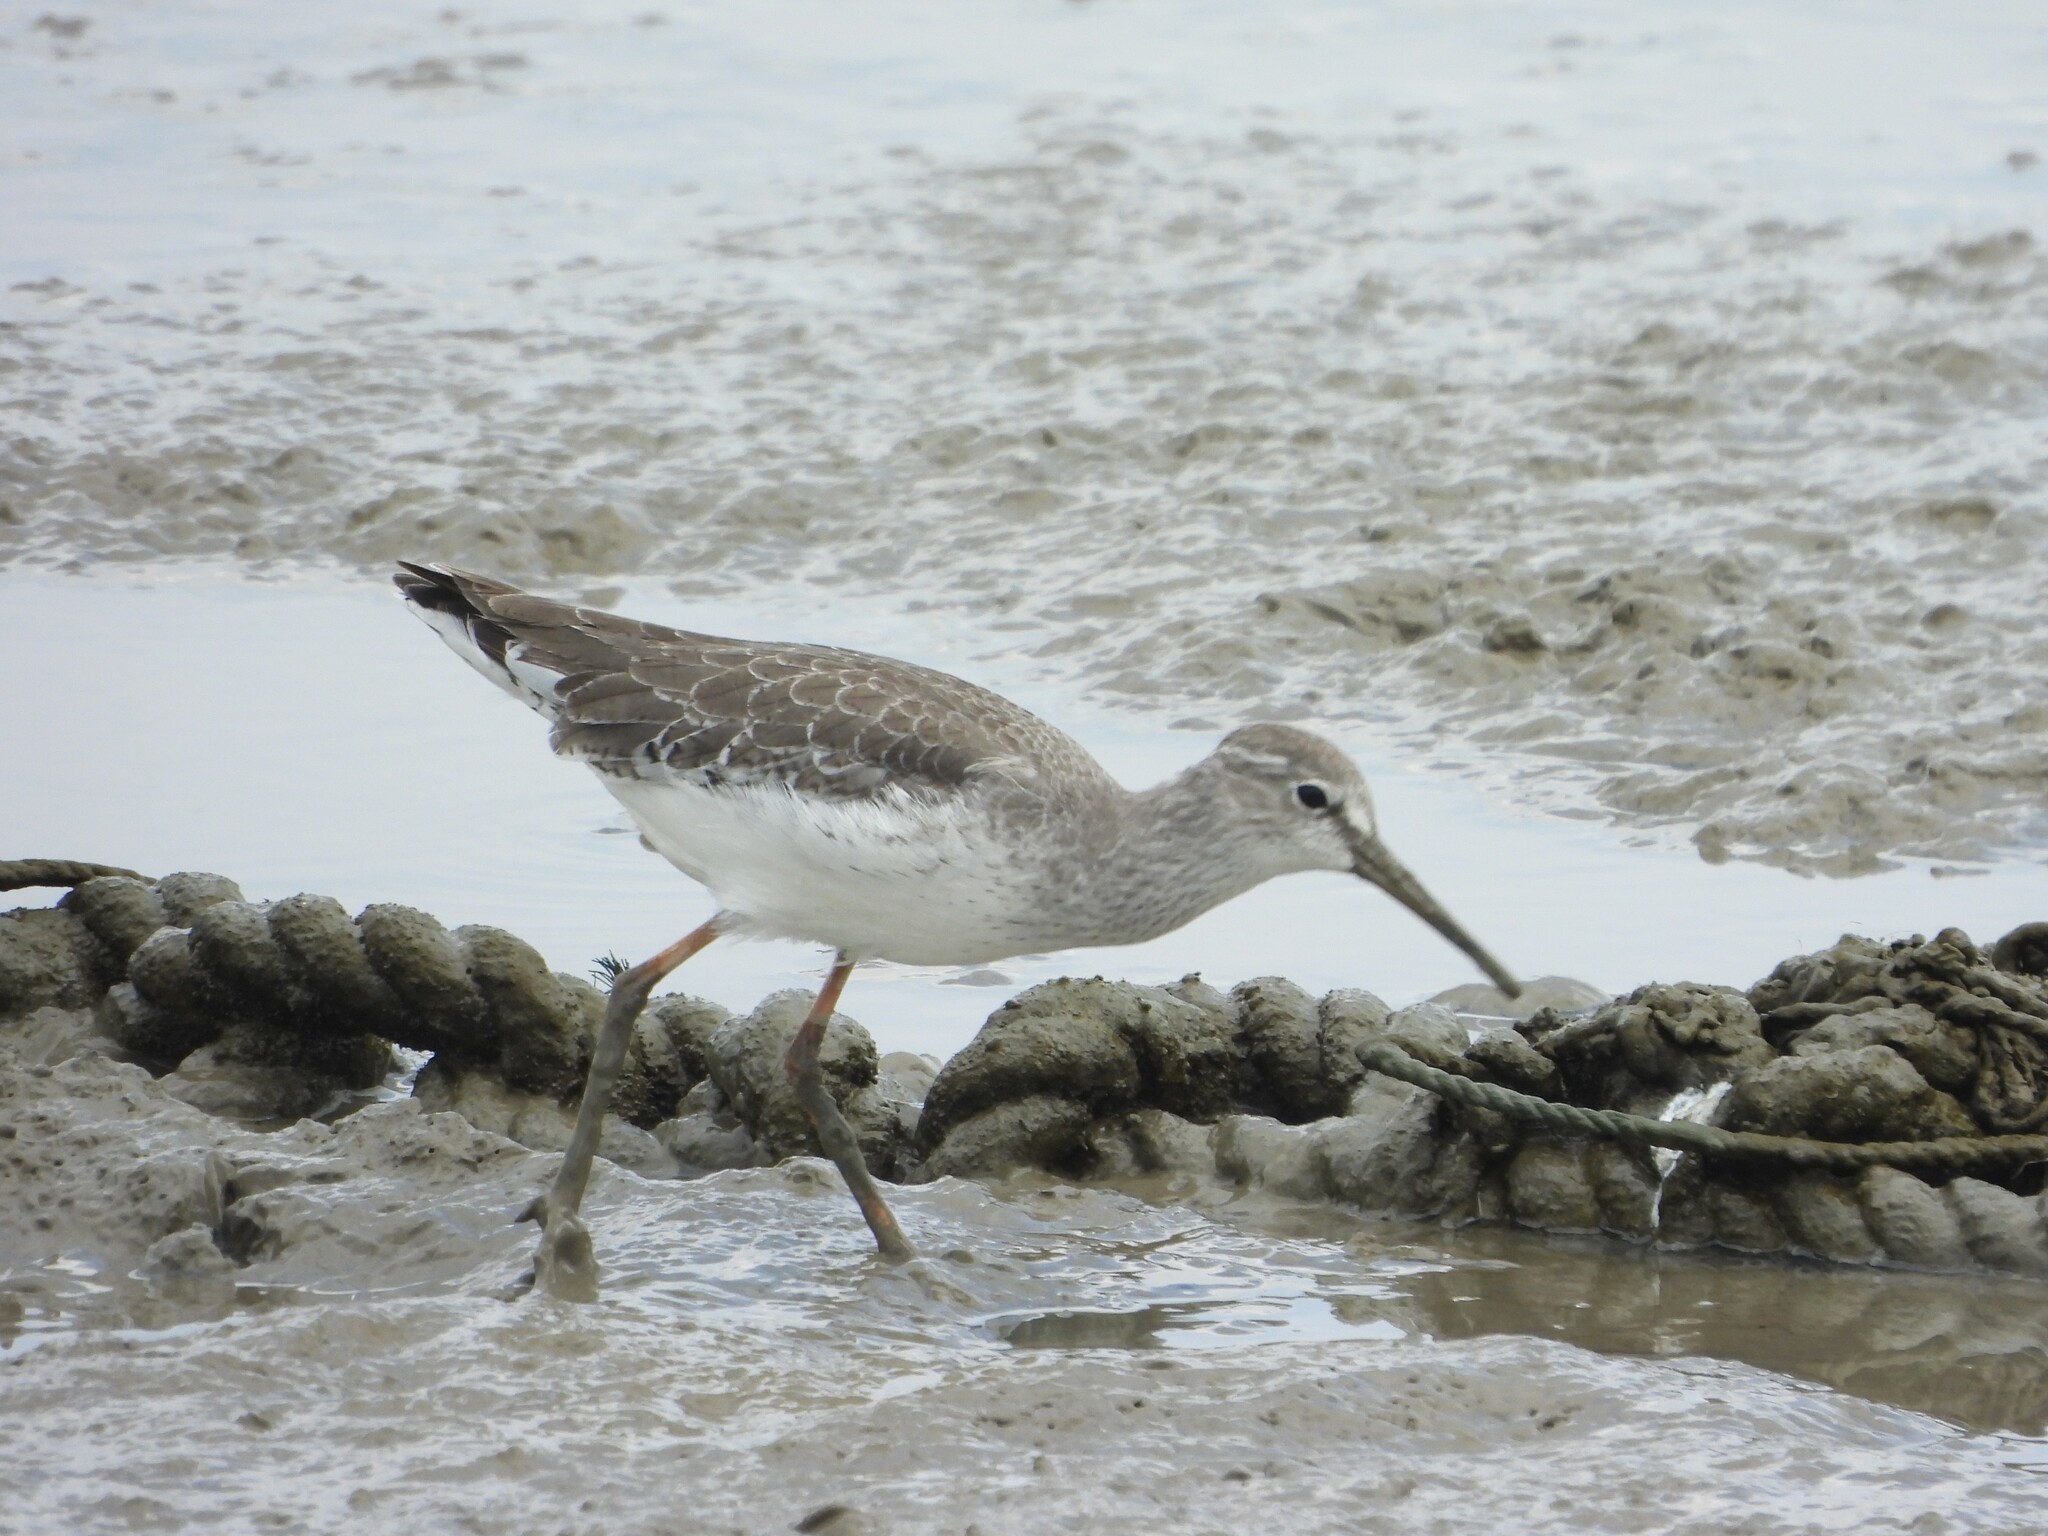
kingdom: Animalia
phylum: Chordata
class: Aves
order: Charadriiformes
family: Scolopacidae
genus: Tringa
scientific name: Tringa totanus
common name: Common redshank
